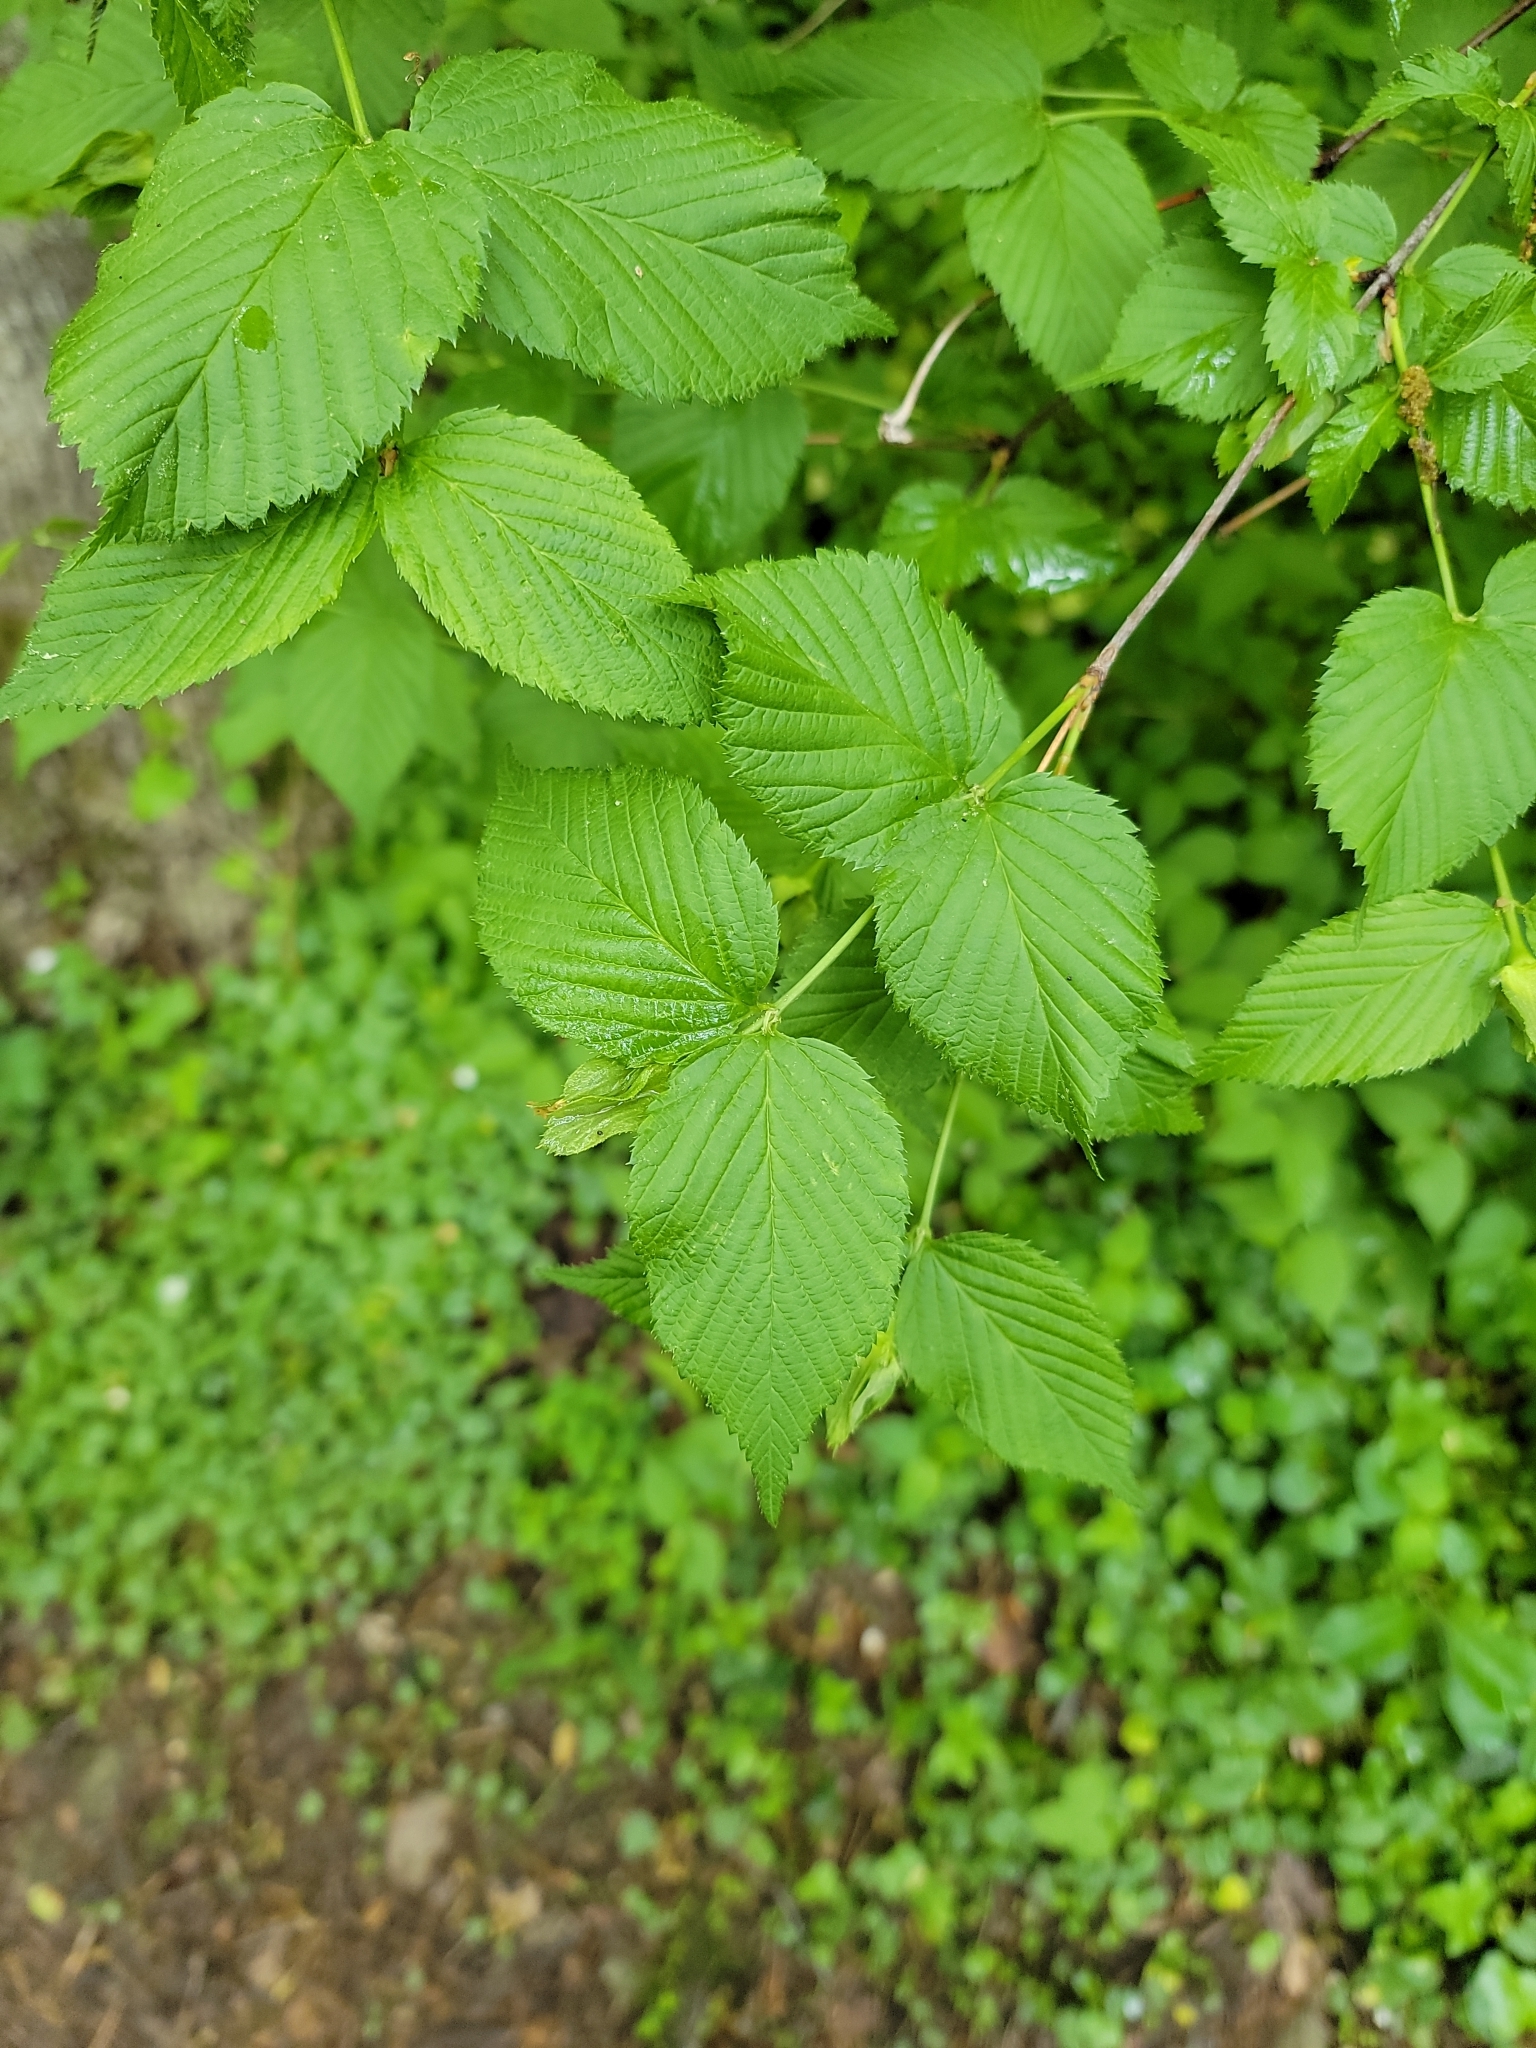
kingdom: Plantae
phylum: Tracheophyta
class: Magnoliopsida
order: Rosales
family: Rosaceae
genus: Rhodotypos
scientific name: Rhodotypos scandens
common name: Jetbead
